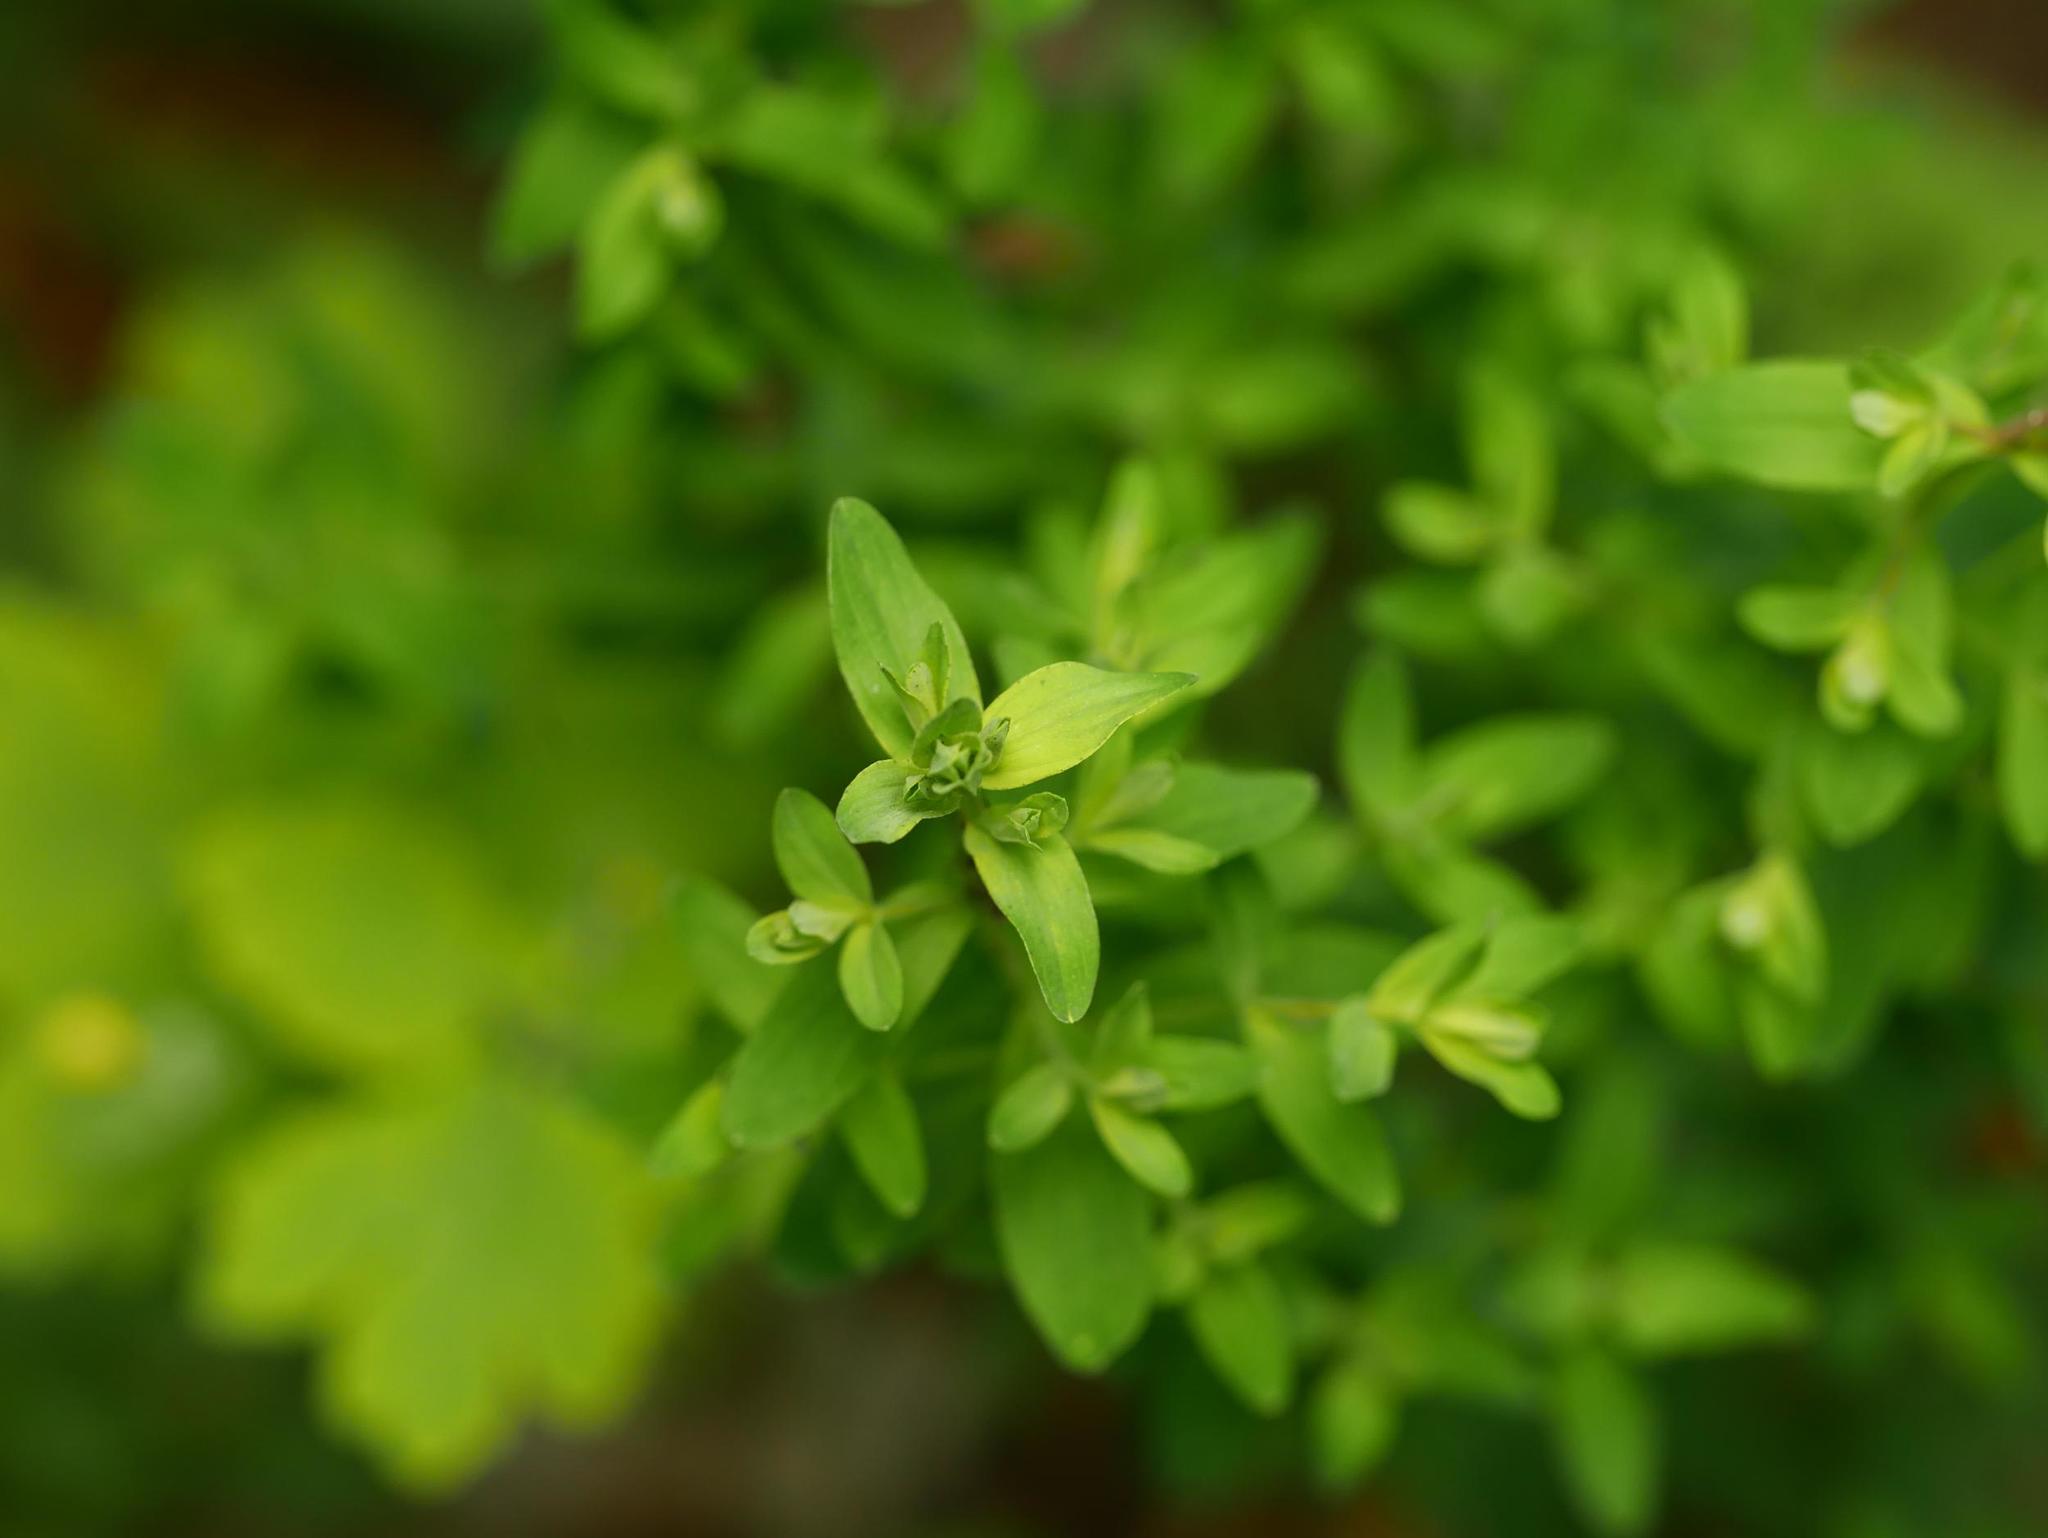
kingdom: Plantae
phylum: Tracheophyta
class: Magnoliopsida
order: Malpighiales
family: Euphorbiaceae
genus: Euphorbia
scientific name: Euphorbia peplus
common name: Petty spurge
